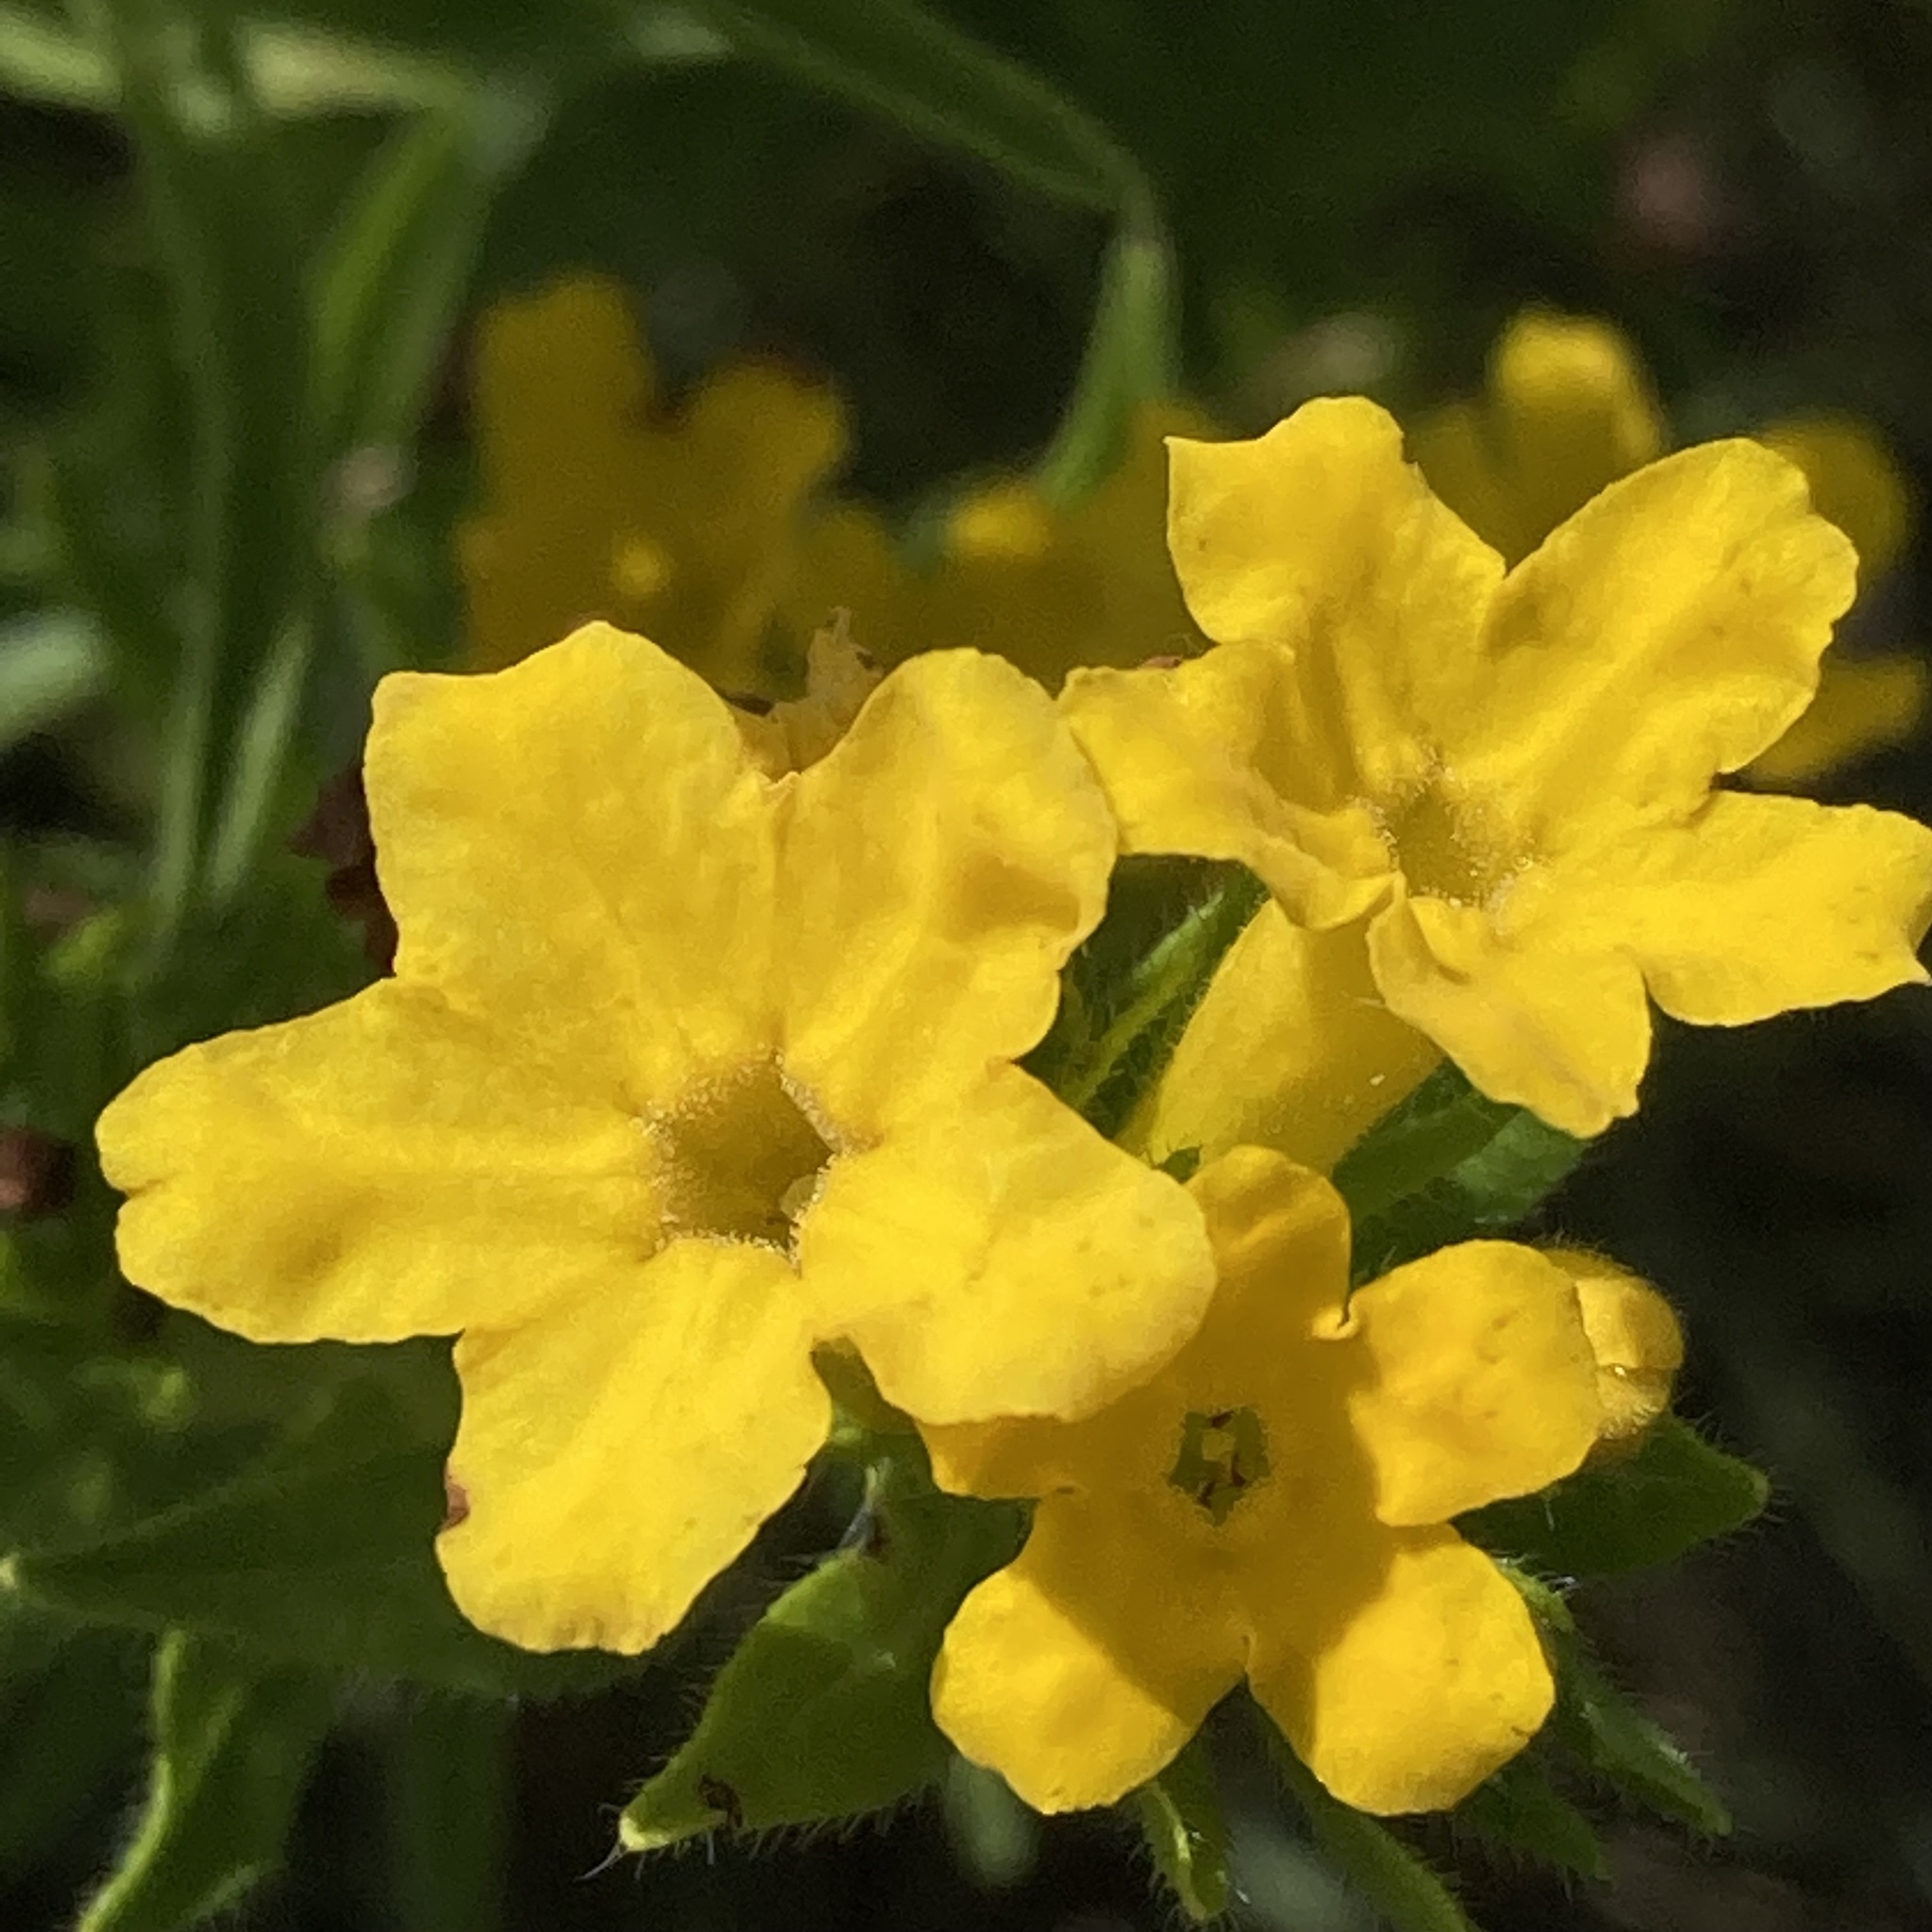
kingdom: Plantae
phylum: Tracheophyta
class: Magnoliopsida
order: Boraginales
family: Boraginaceae
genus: Lithospermum
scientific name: Lithospermum caroliniense
